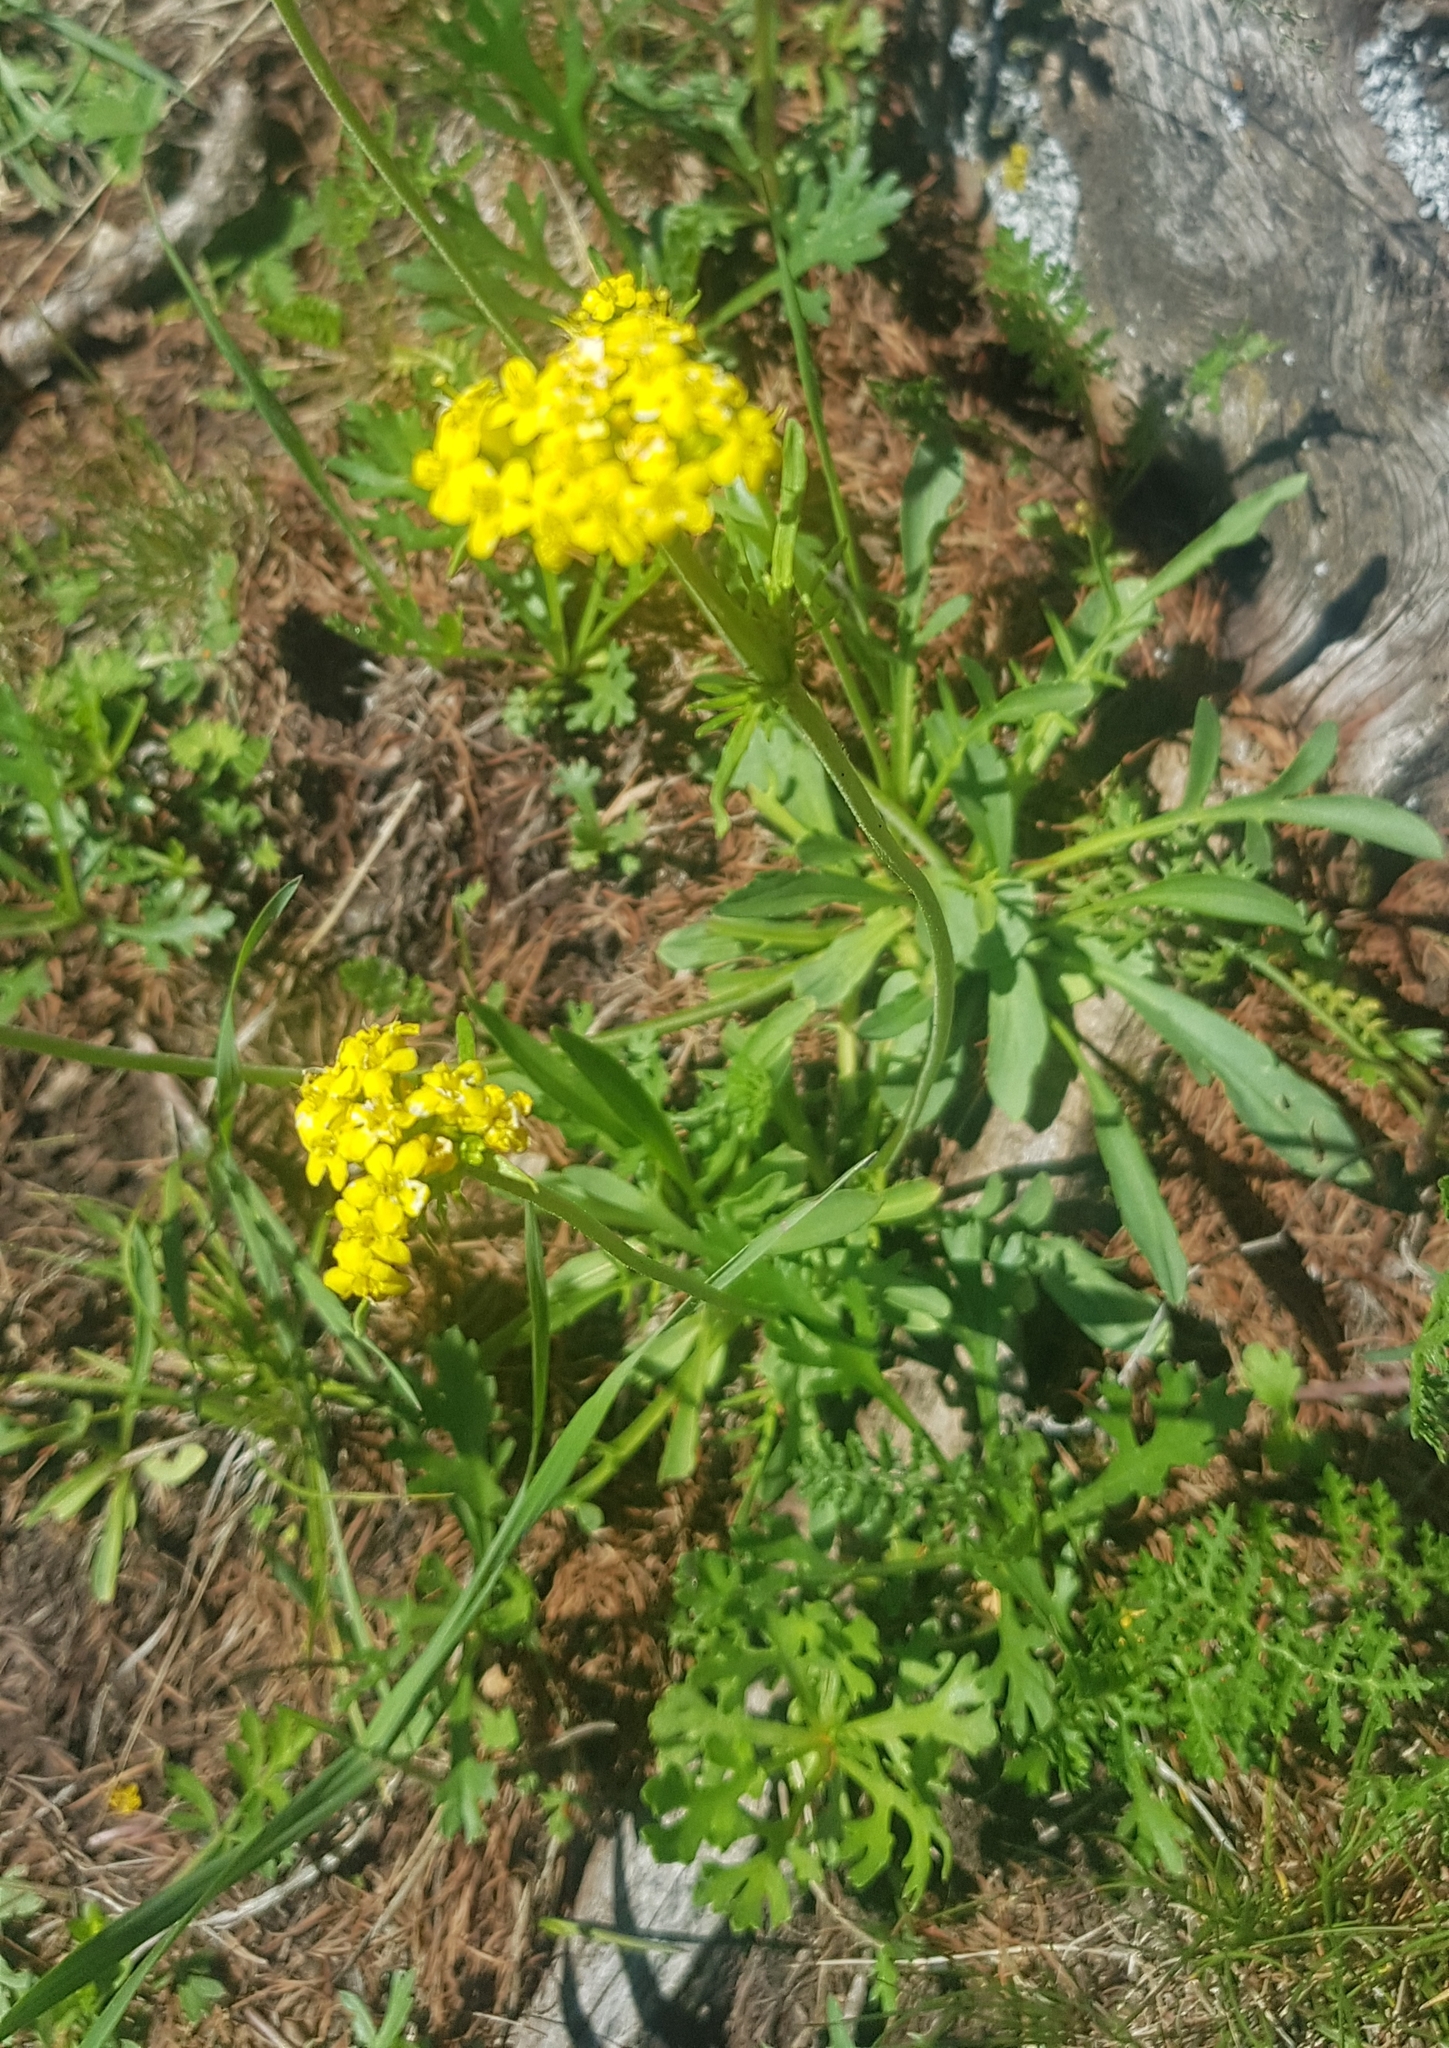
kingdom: Plantae
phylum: Tracheophyta
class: Magnoliopsida
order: Dipsacales
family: Caprifoliaceae
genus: Patrinia
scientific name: Patrinia sibirica
